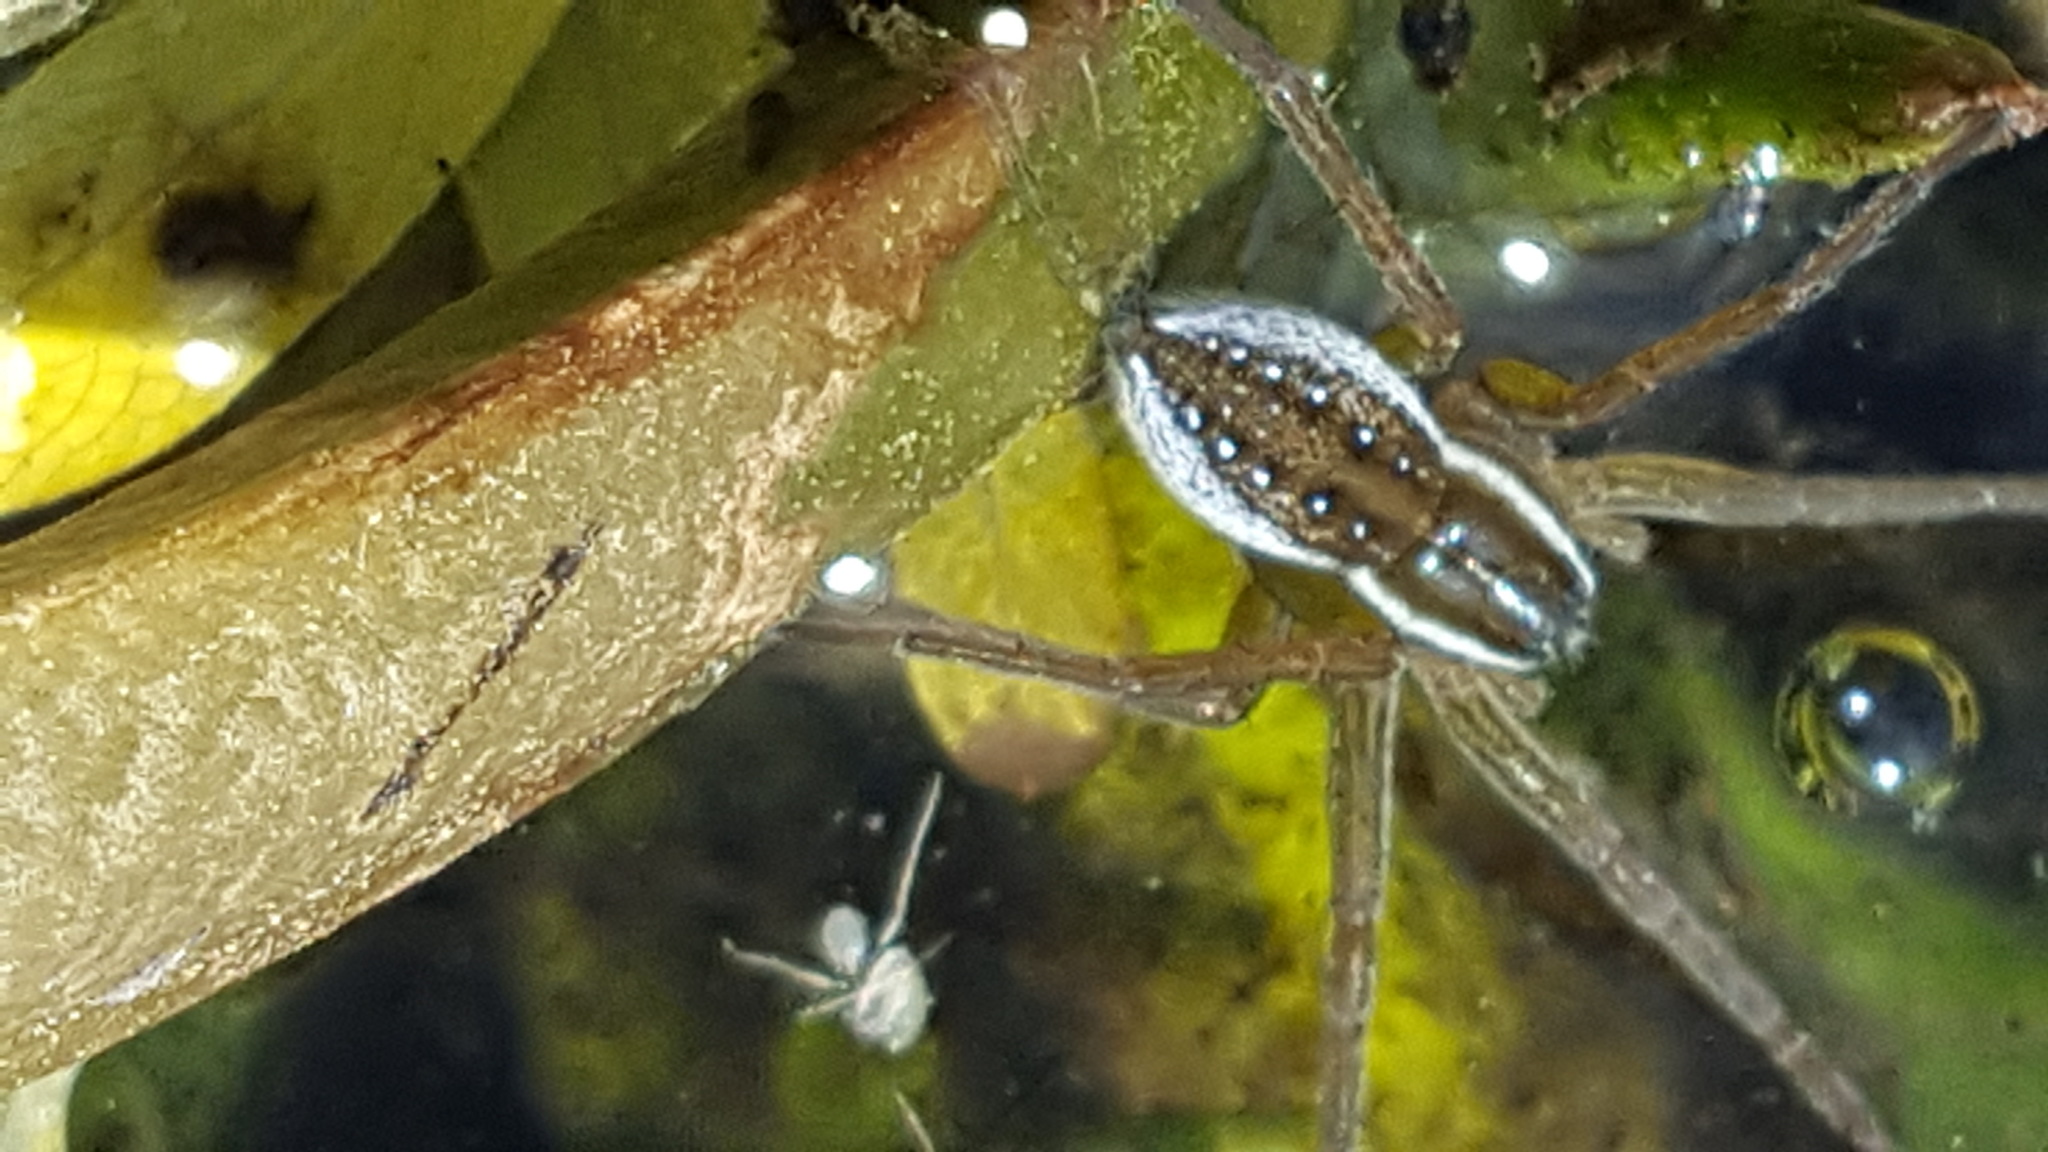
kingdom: Animalia
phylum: Arthropoda
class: Arachnida
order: Araneae
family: Pisauridae
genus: Dolomedes
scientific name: Dolomedes triton
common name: Six-spotted fishing spider
